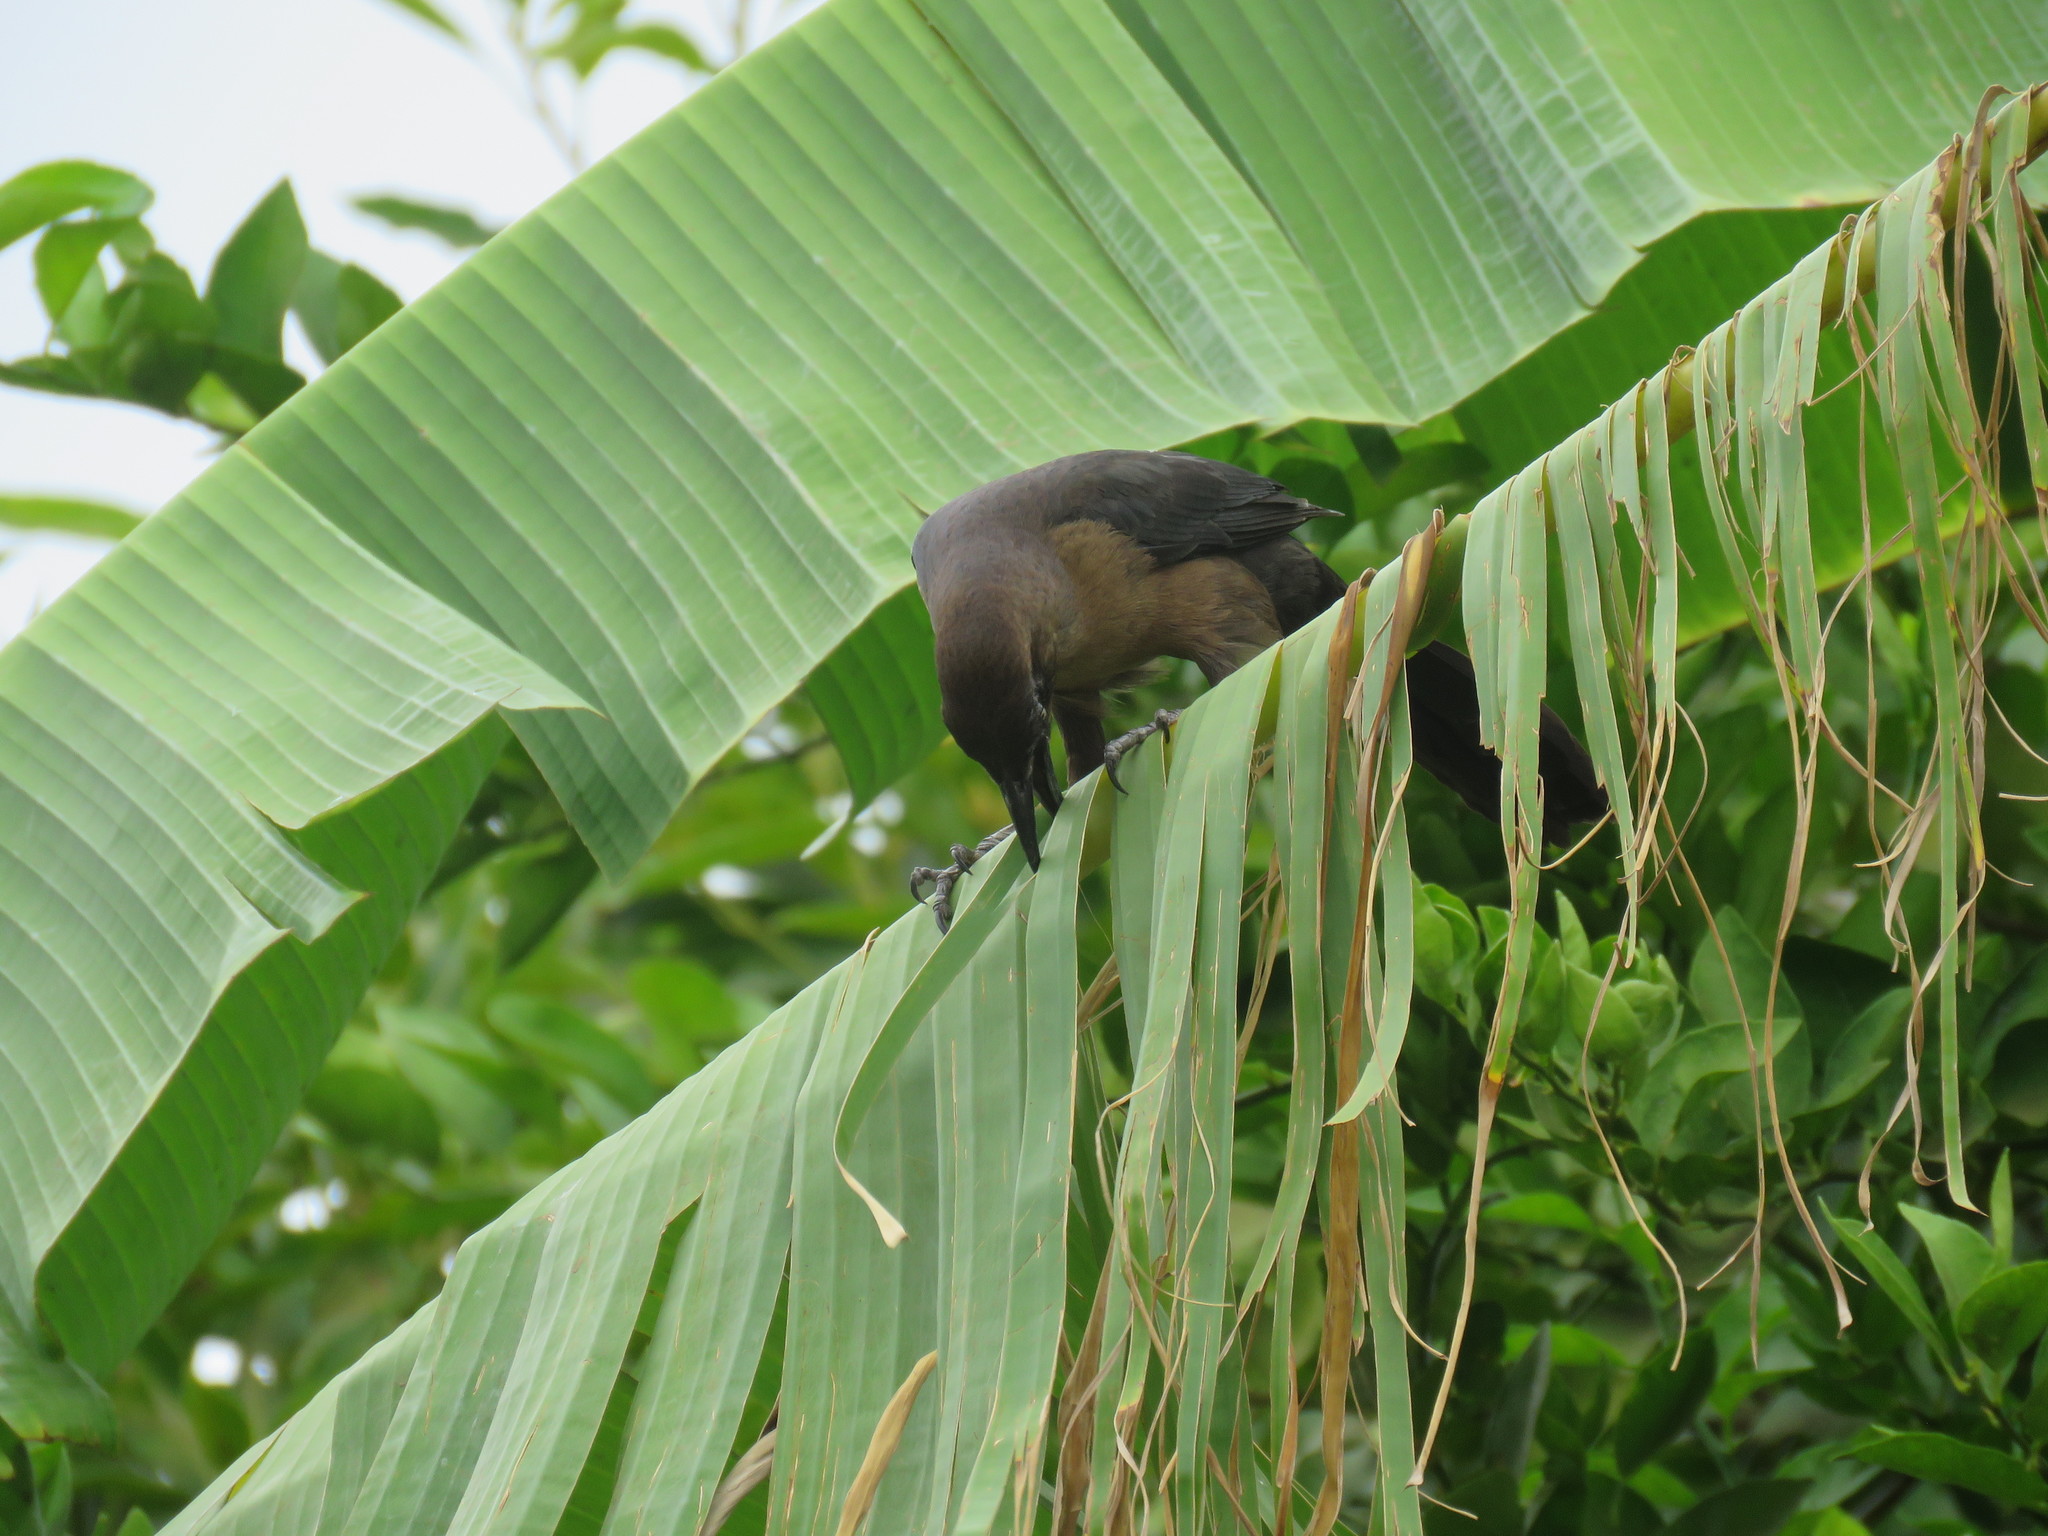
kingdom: Animalia
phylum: Chordata
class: Aves
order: Passeriformes
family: Icteridae
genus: Quiscalus
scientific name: Quiscalus mexicanus
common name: Great-tailed grackle
